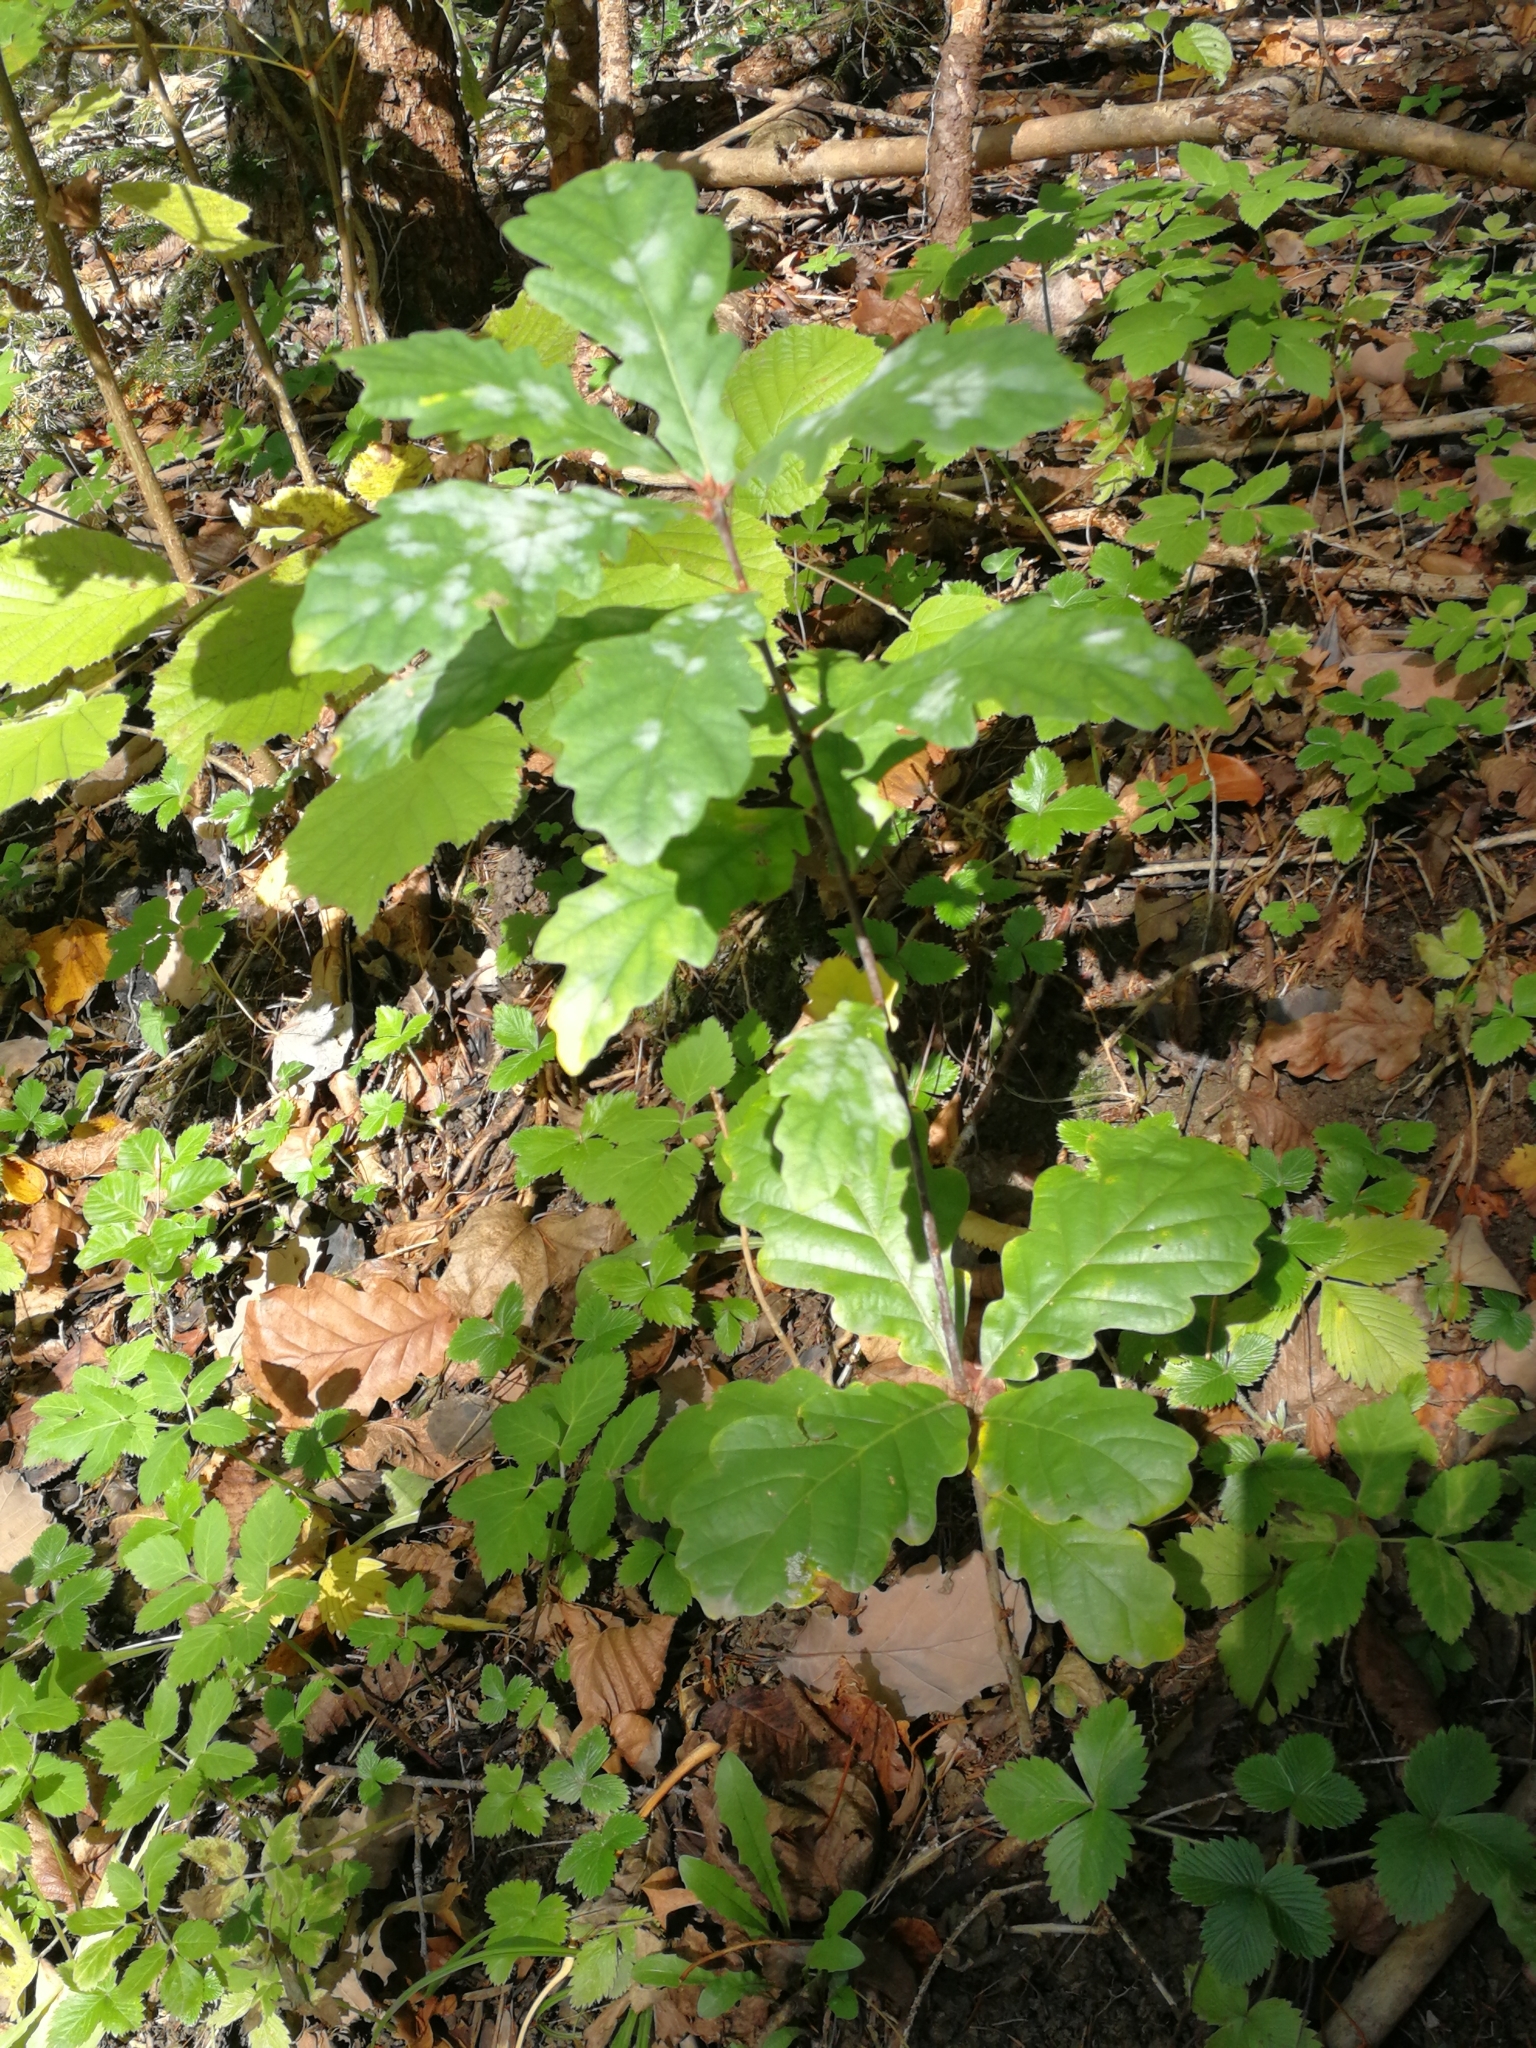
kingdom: Plantae
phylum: Tracheophyta
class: Magnoliopsida
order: Fagales
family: Fagaceae
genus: Quercus
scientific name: Quercus robur
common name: Pedunculate oak
